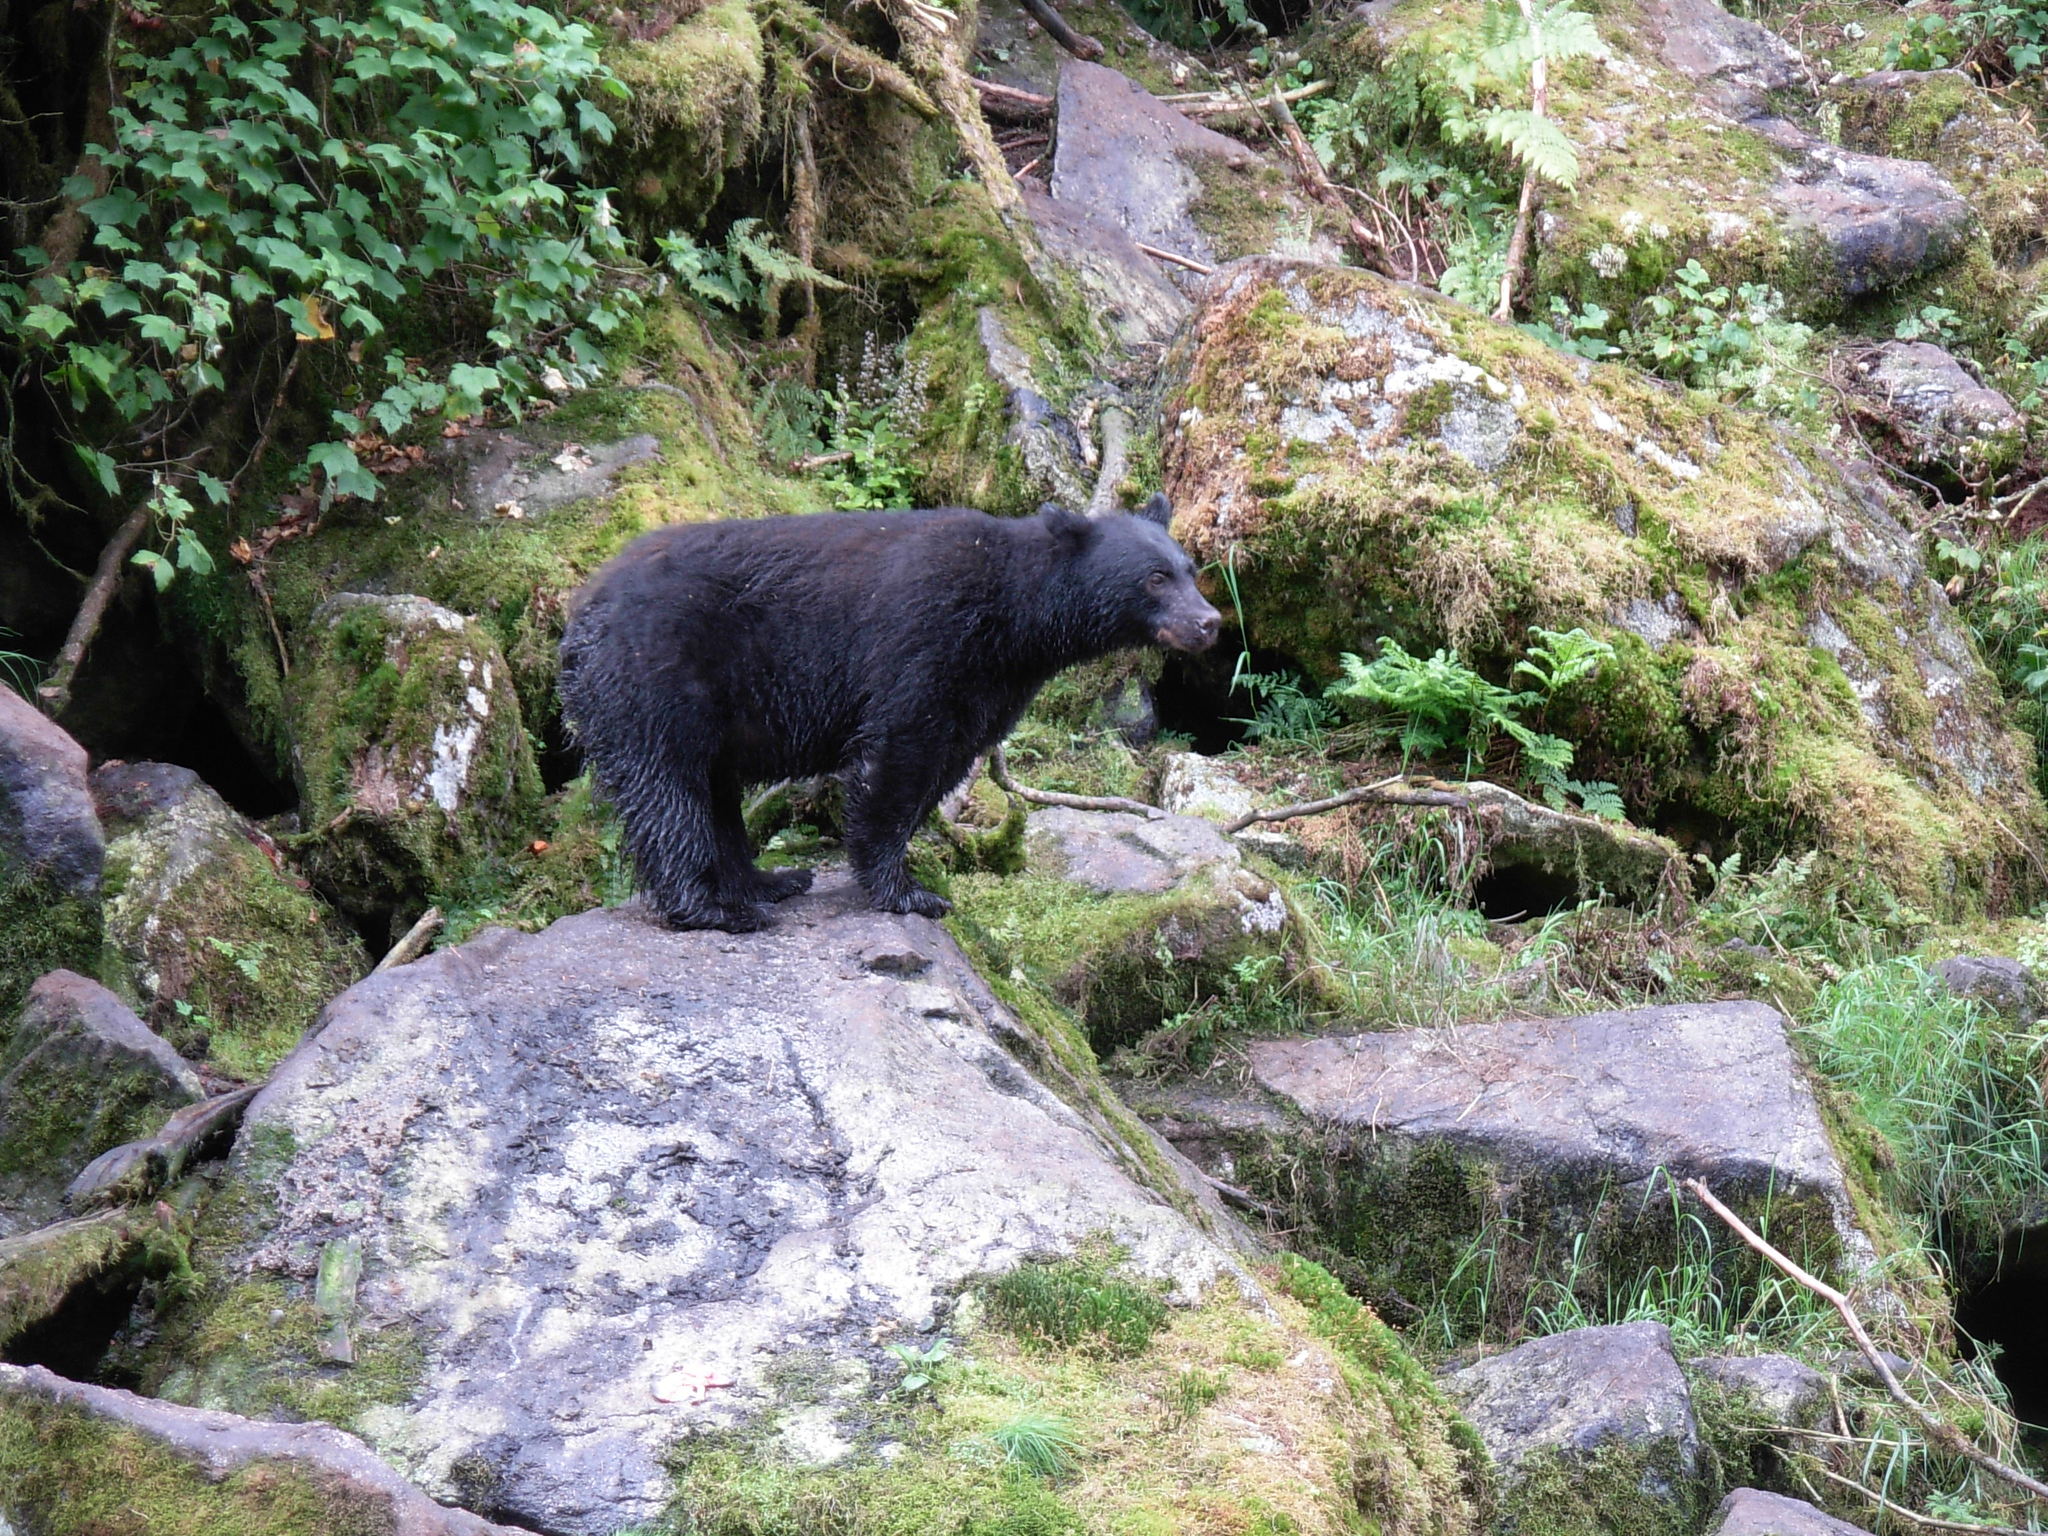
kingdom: Animalia
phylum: Chordata
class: Mammalia
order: Carnivora
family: Ursidae
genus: Ursus
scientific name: Ursus americanus
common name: American black bear
